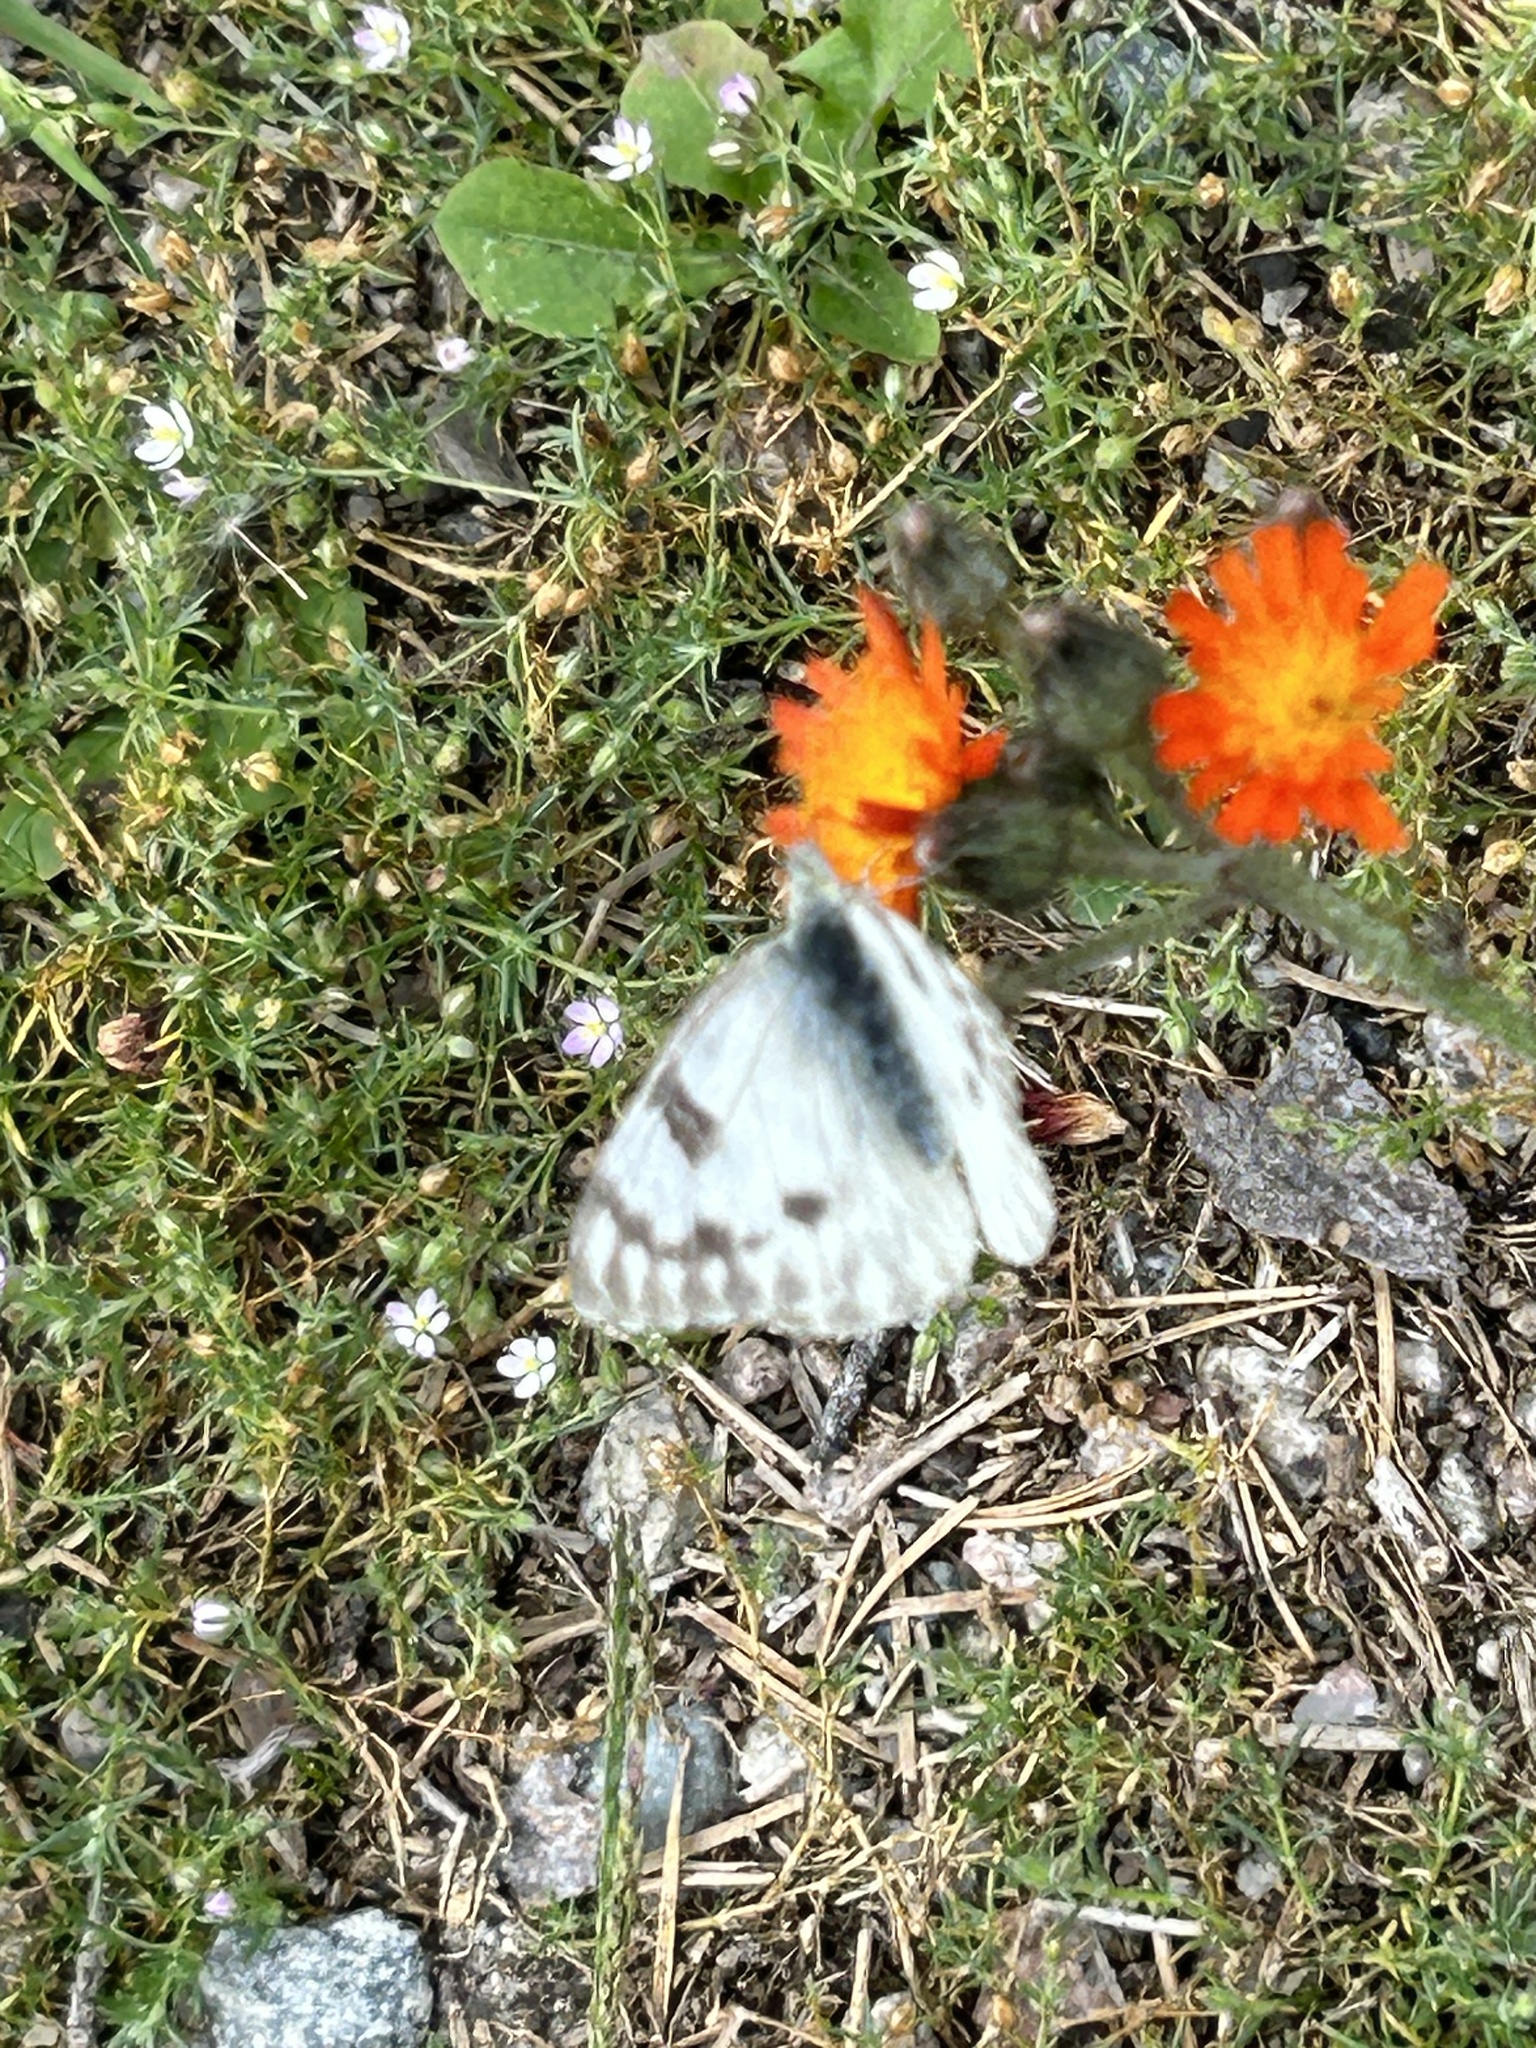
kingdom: Animalia
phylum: Arthropoda
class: Insecta
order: Lepidoptera
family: Pieridae
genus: Pontia
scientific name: Pontia occidentalis
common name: Western white
